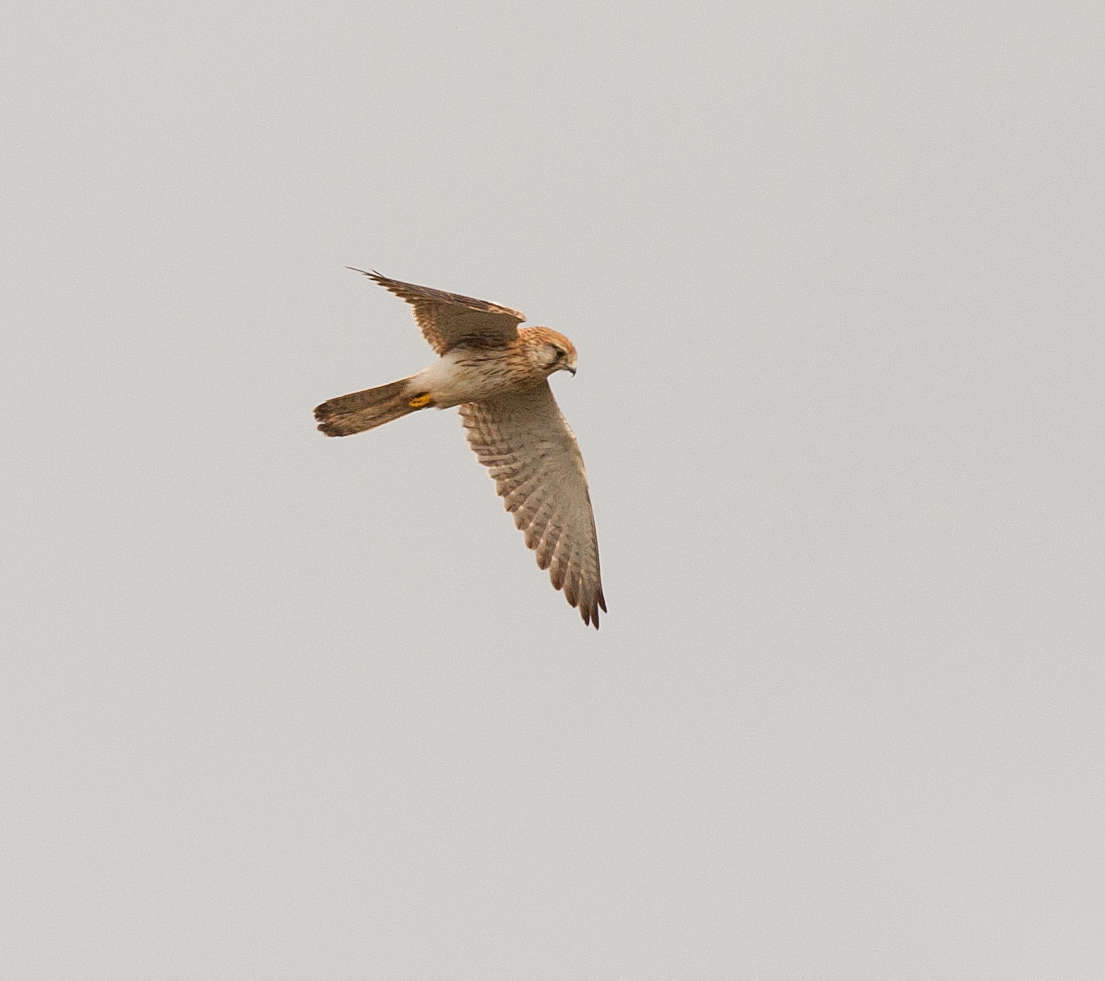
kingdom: Animalia
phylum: Chordata
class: Aves
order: Falconiformes
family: Falconidae
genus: Falco
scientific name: Falco cenchroides
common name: Nankeen kestrel
